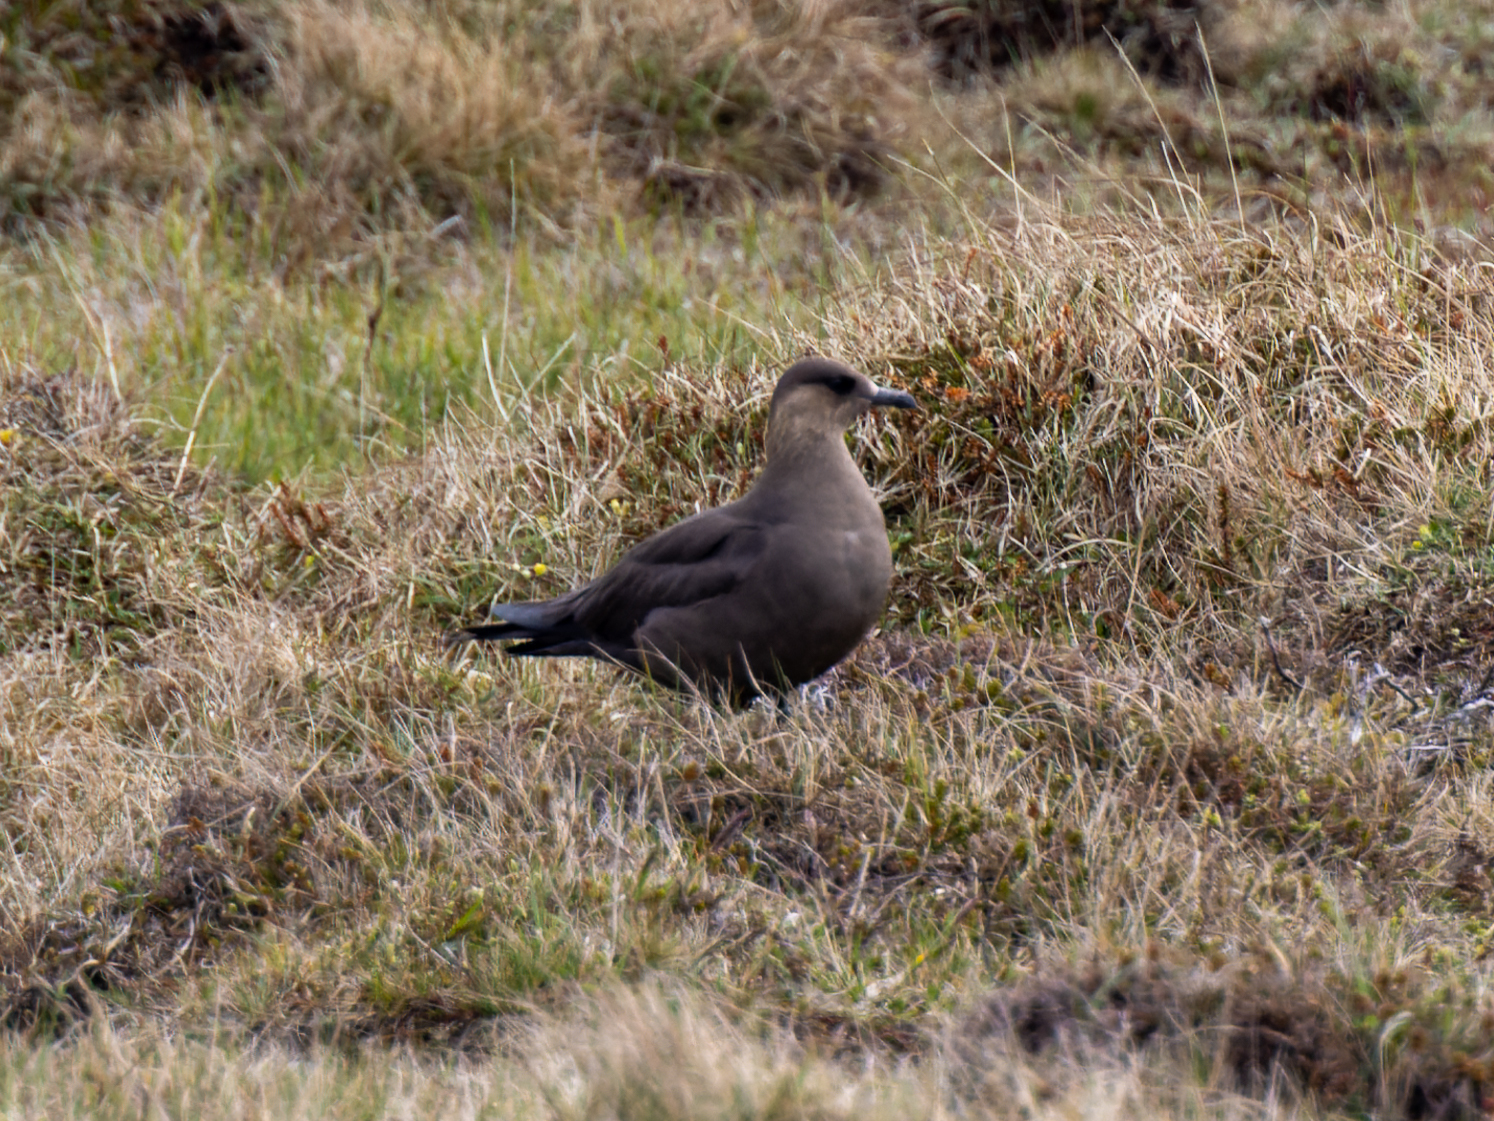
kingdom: Animalia
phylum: Chordata
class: Aves
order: Charadriiformes
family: Stercorariidae
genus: Stercorarius
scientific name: Stercorarius parasiticus
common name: Parasitic jaeger
